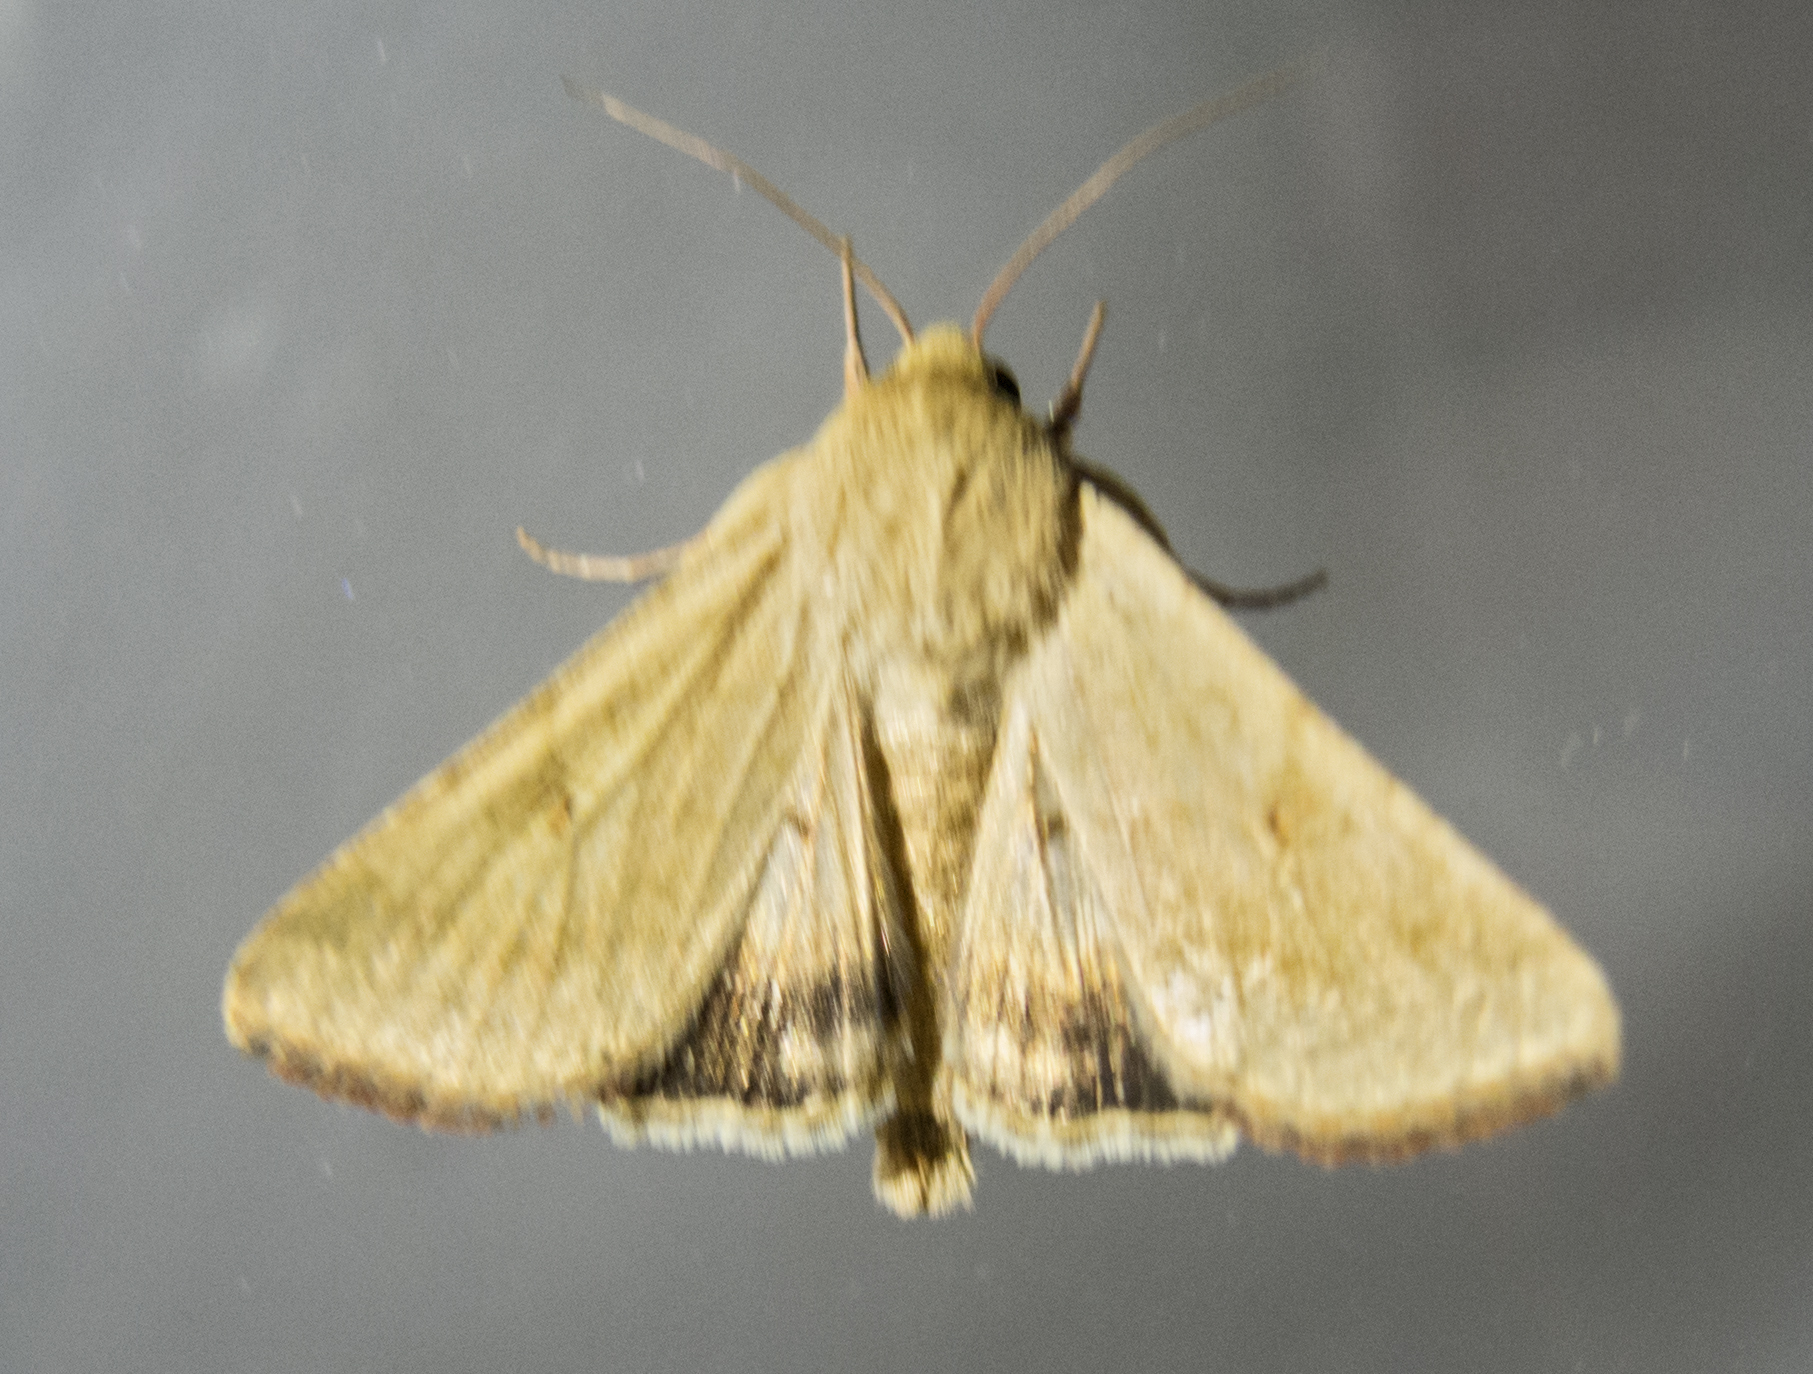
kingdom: Animalia
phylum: Arthropoda
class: Insecta
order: Lepidoptera
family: Noctuidae
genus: Helicoverpa
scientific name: Helicoverpa armigera
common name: Cotton bollworm
